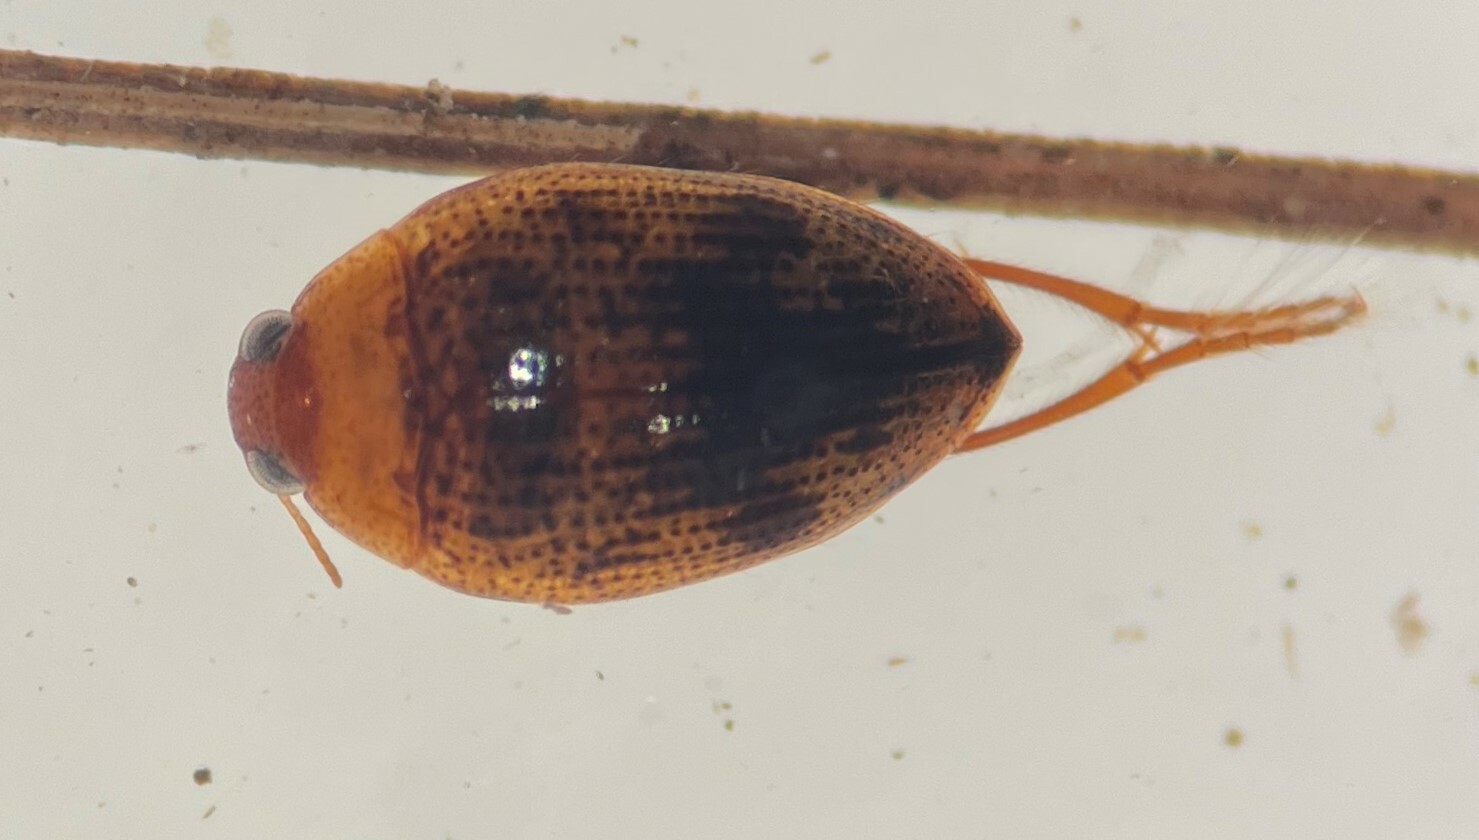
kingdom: Animalia
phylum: Arthropoda
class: Insecta
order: Coleoptera
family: Haliplidae
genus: Haliplus
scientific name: Haliplus longulus
